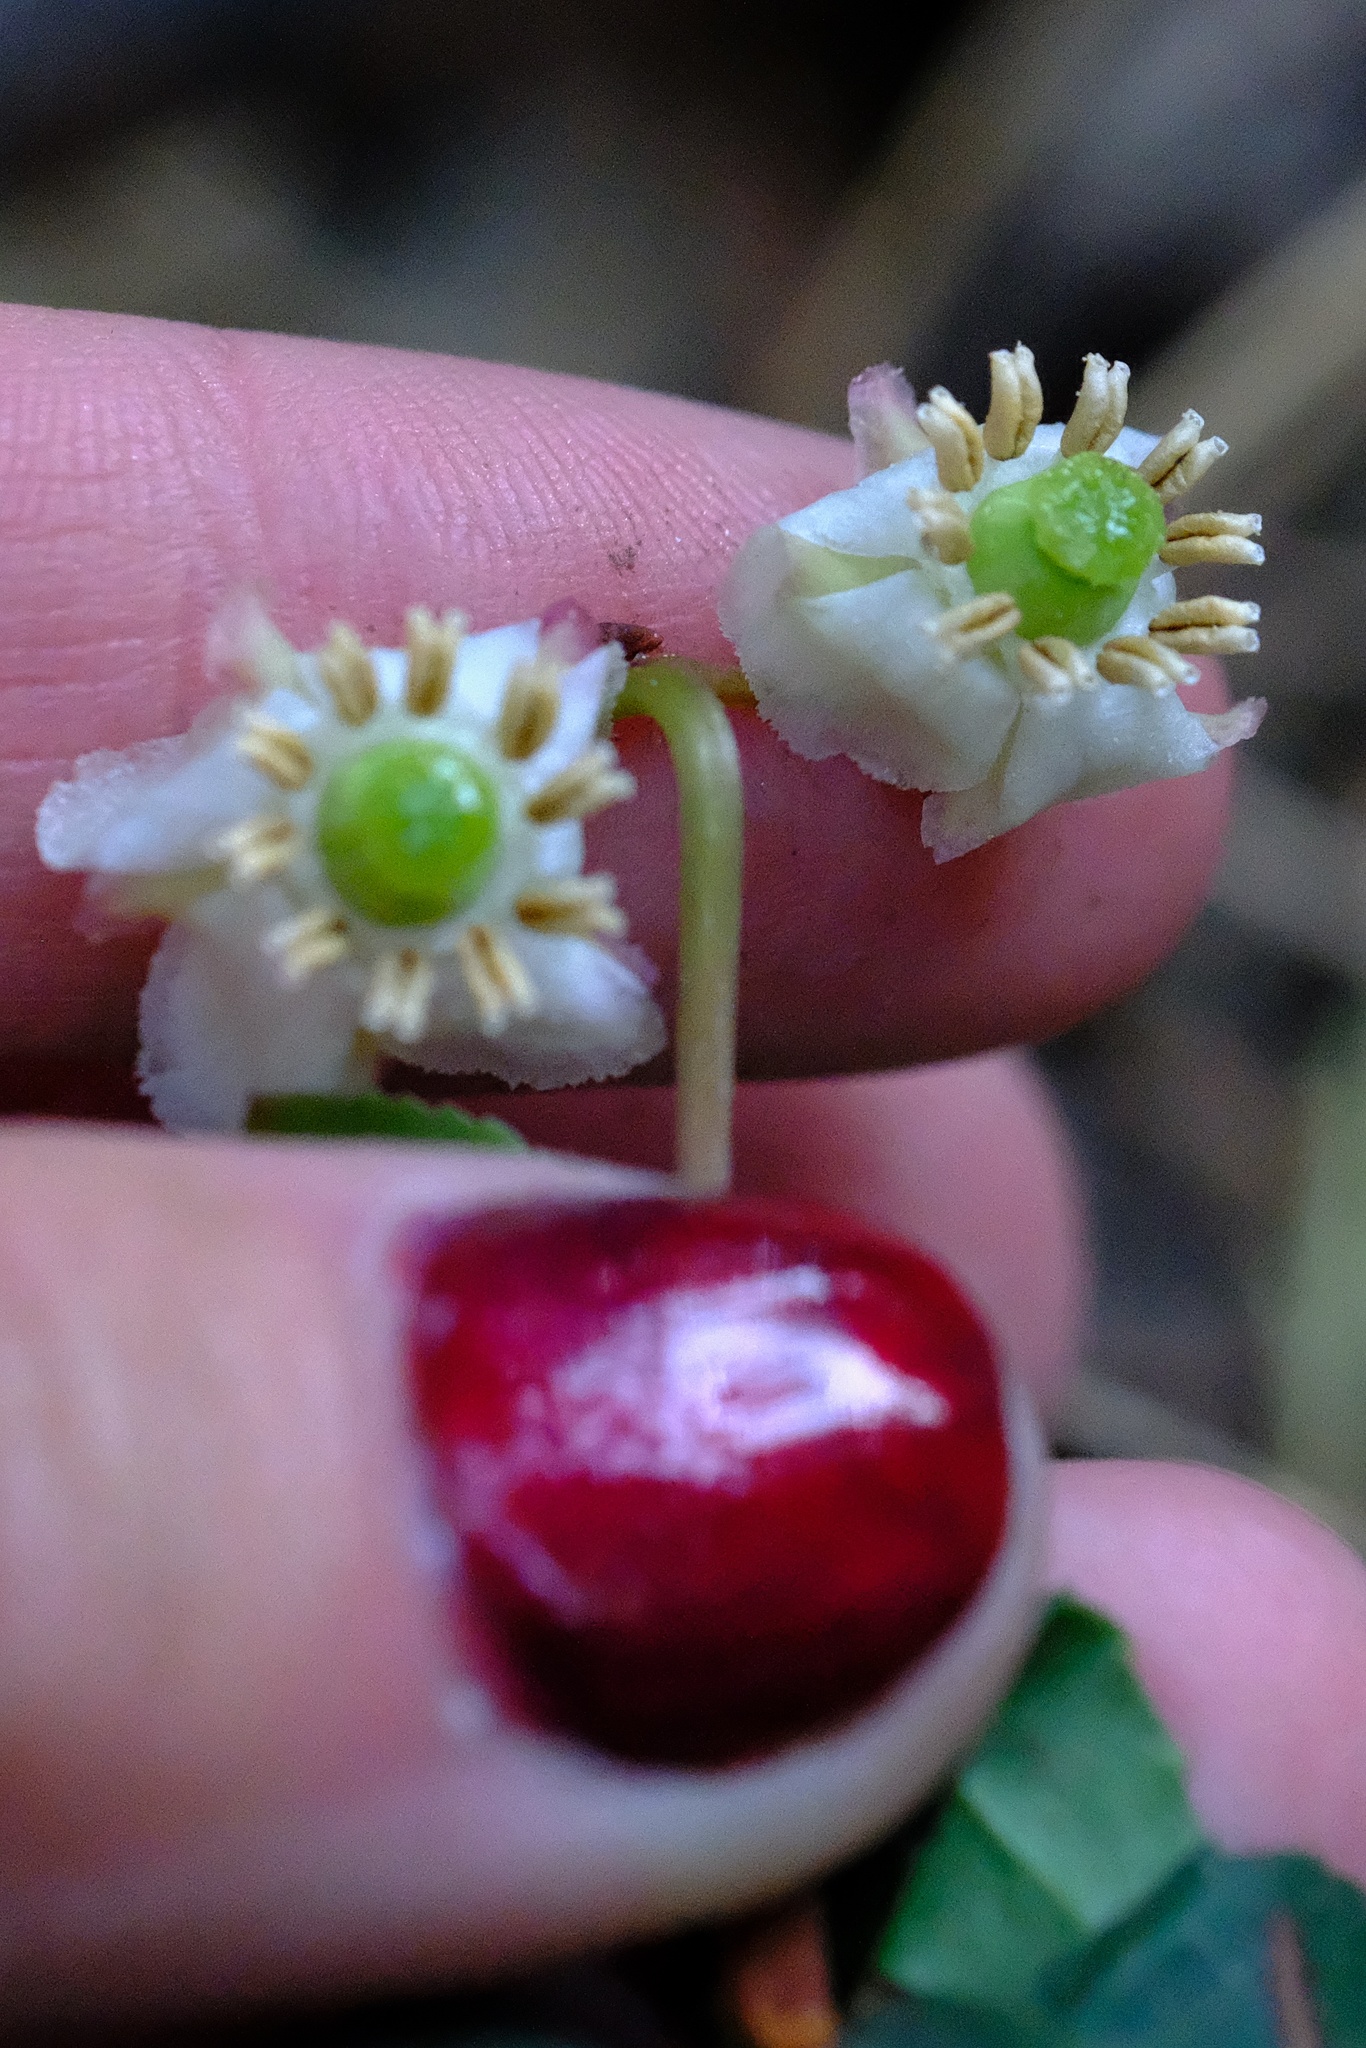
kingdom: Plantae
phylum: Tracheophyta
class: Magnoliopsida
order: Ericales
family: Ericaceae
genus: Chimaphila
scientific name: Chimaphila menziesii
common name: Menzies' pipsissewa
